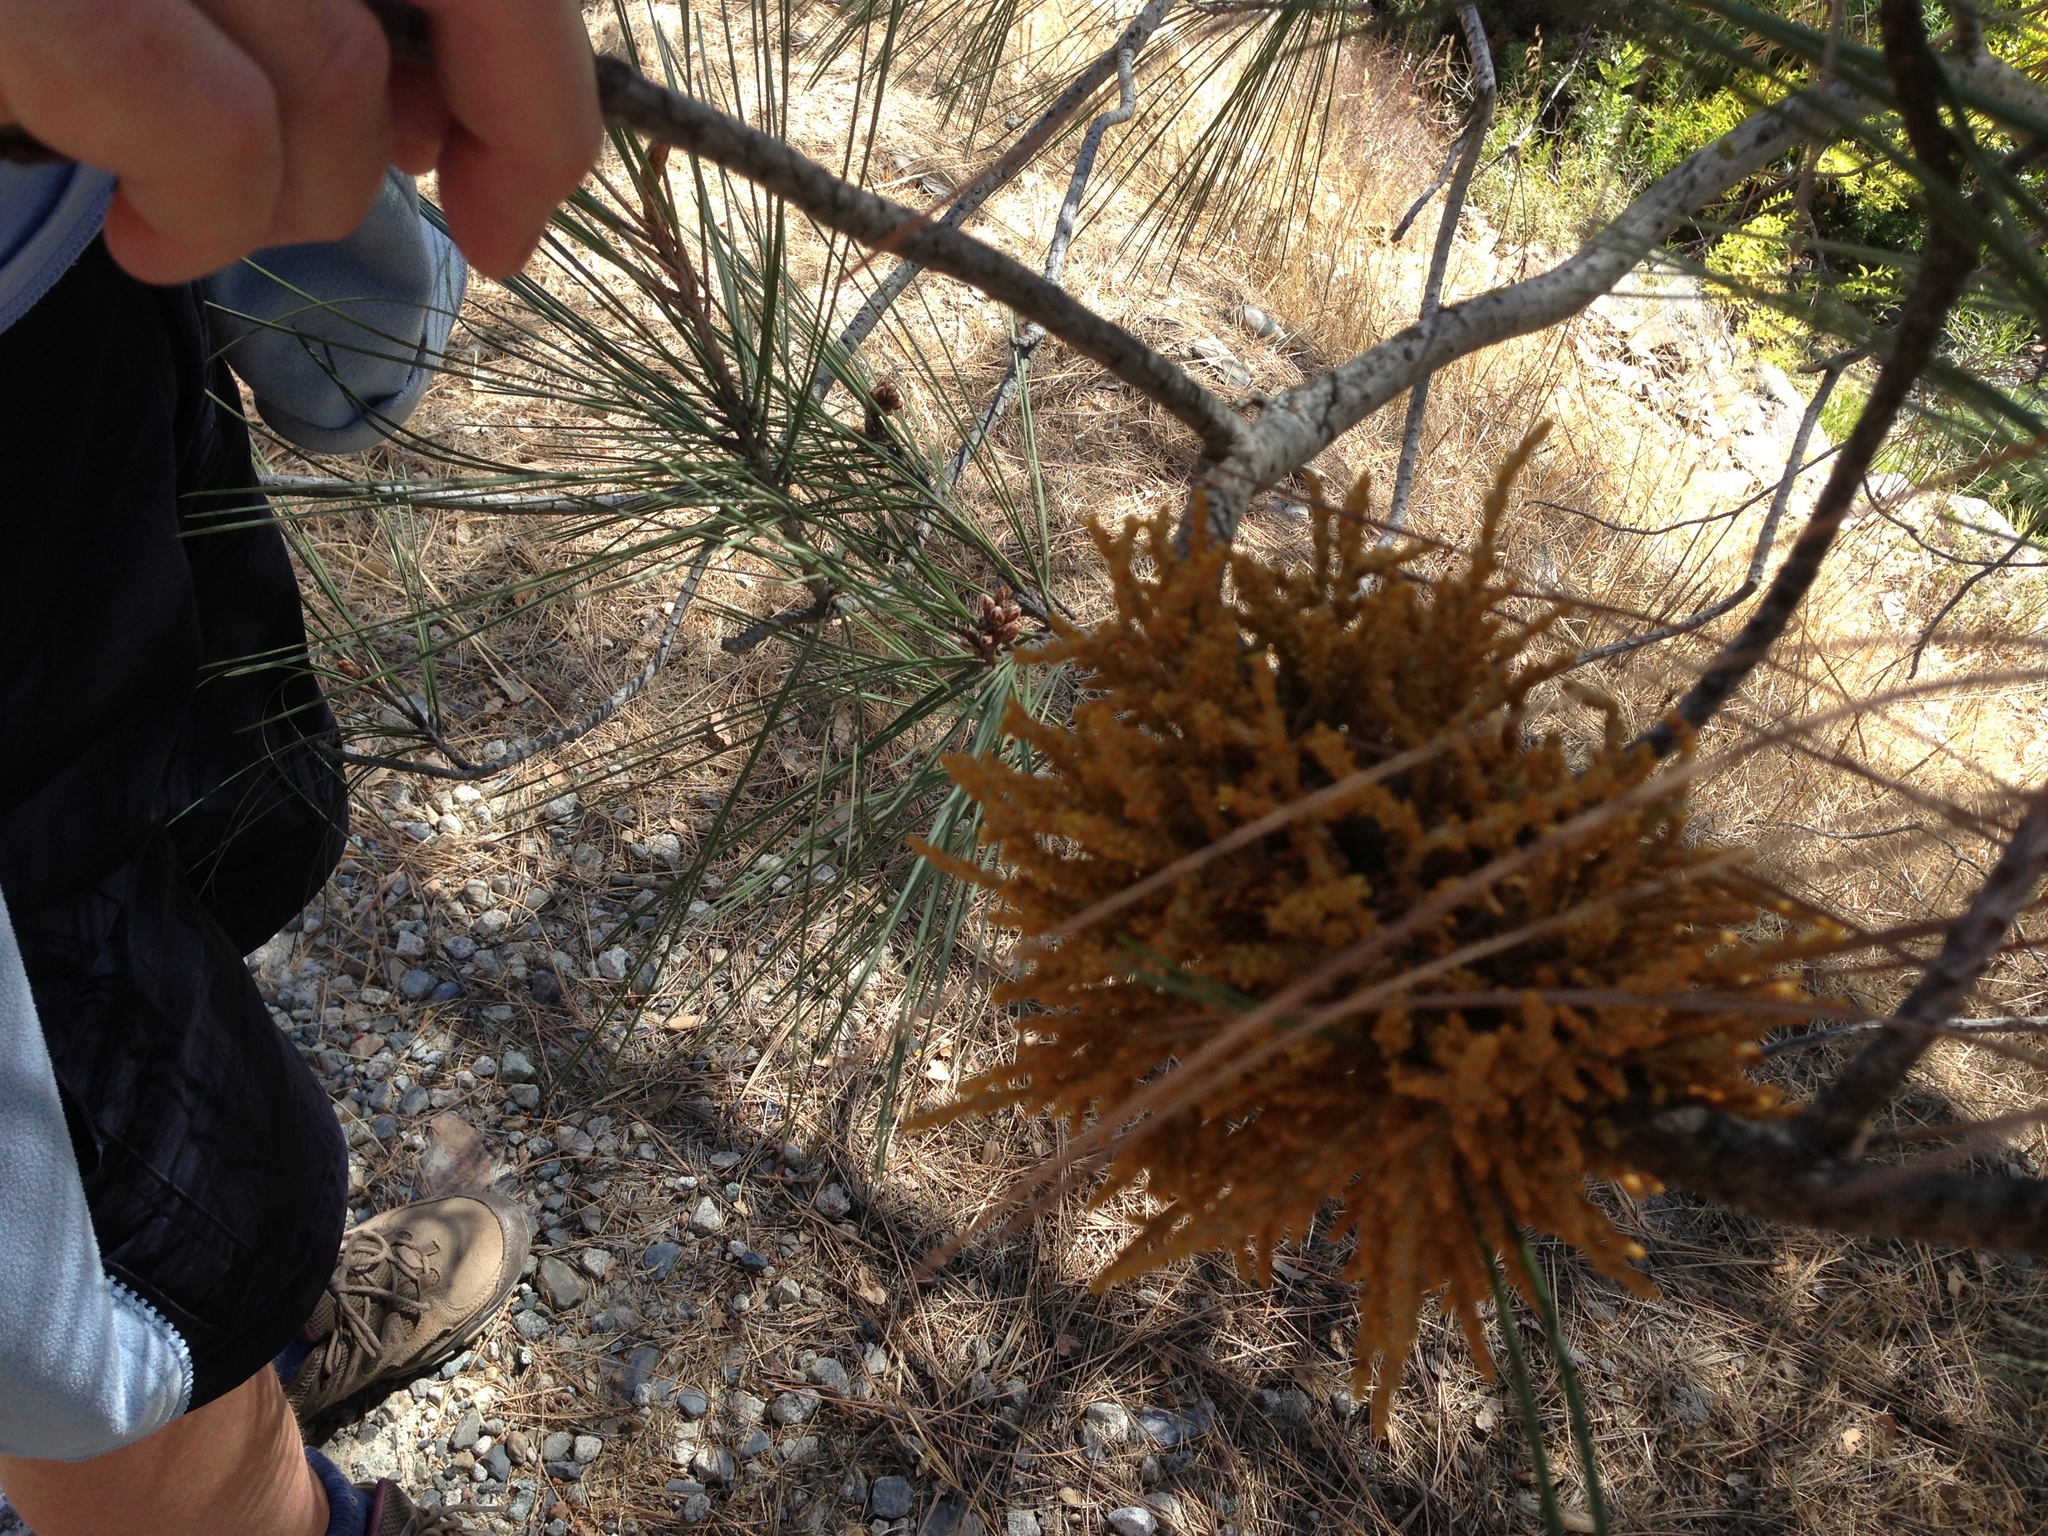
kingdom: Plantae
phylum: Tracheophyta
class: Magnoliopsida
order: Santalales
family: Viscaceae
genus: Arceuthobium
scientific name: Arceuthobium campylopodum
